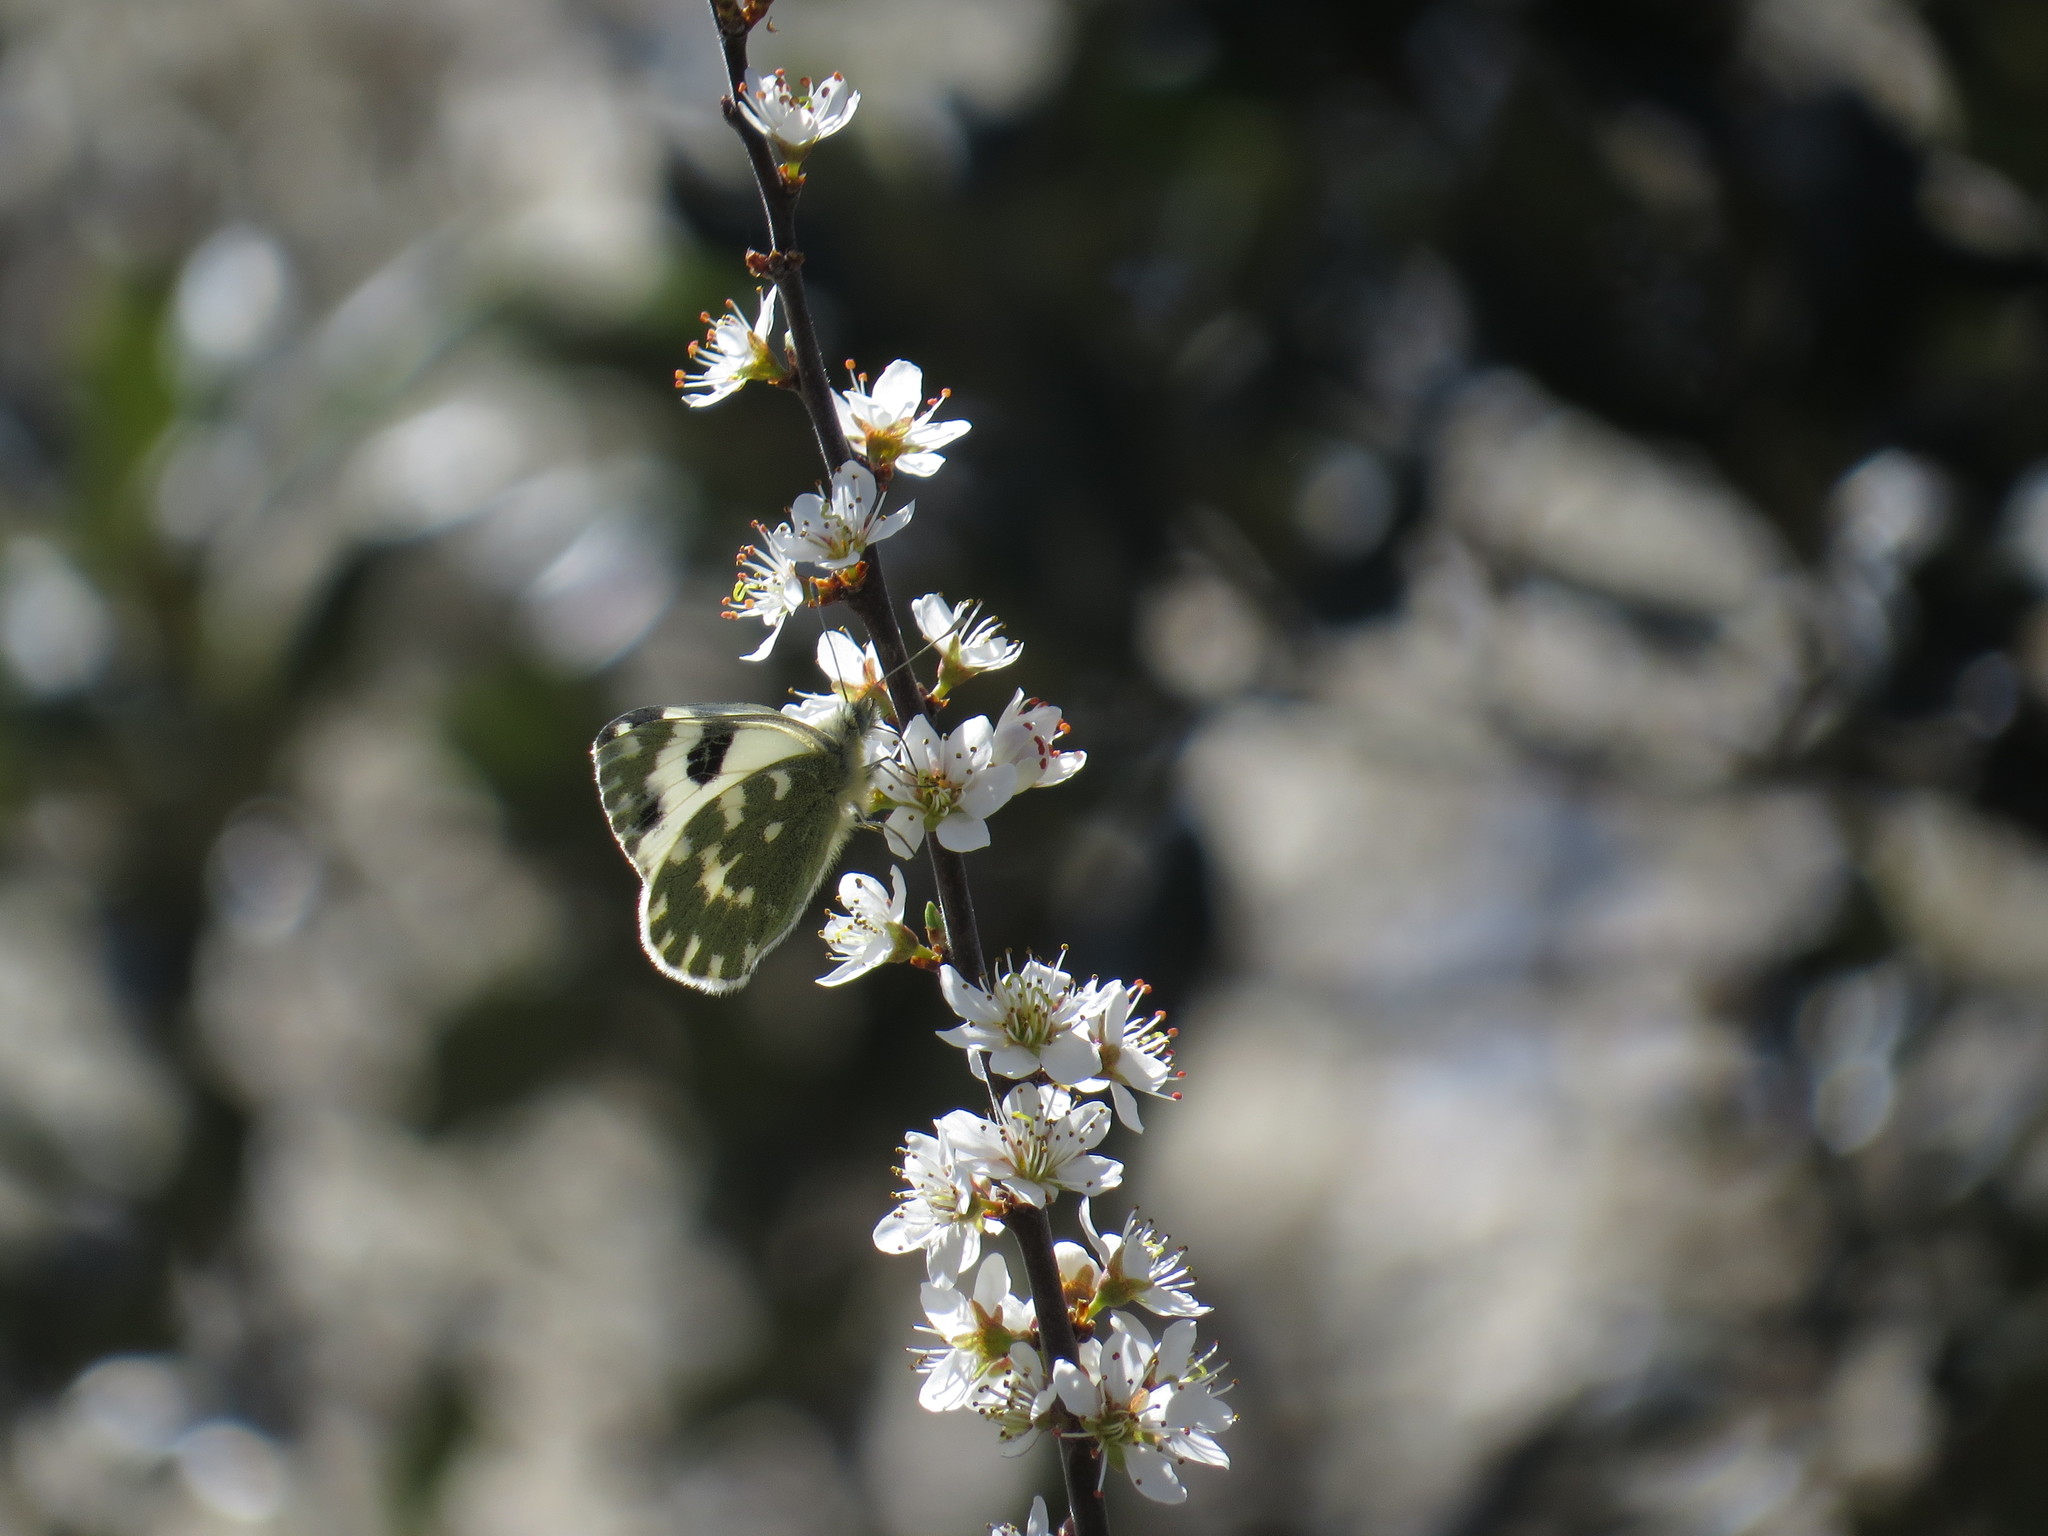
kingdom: Animalia
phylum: Arthropoda
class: Insecta
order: Lepidoptera
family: Pieridae
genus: Pontia
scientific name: Pontia daplidice
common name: Bath white
